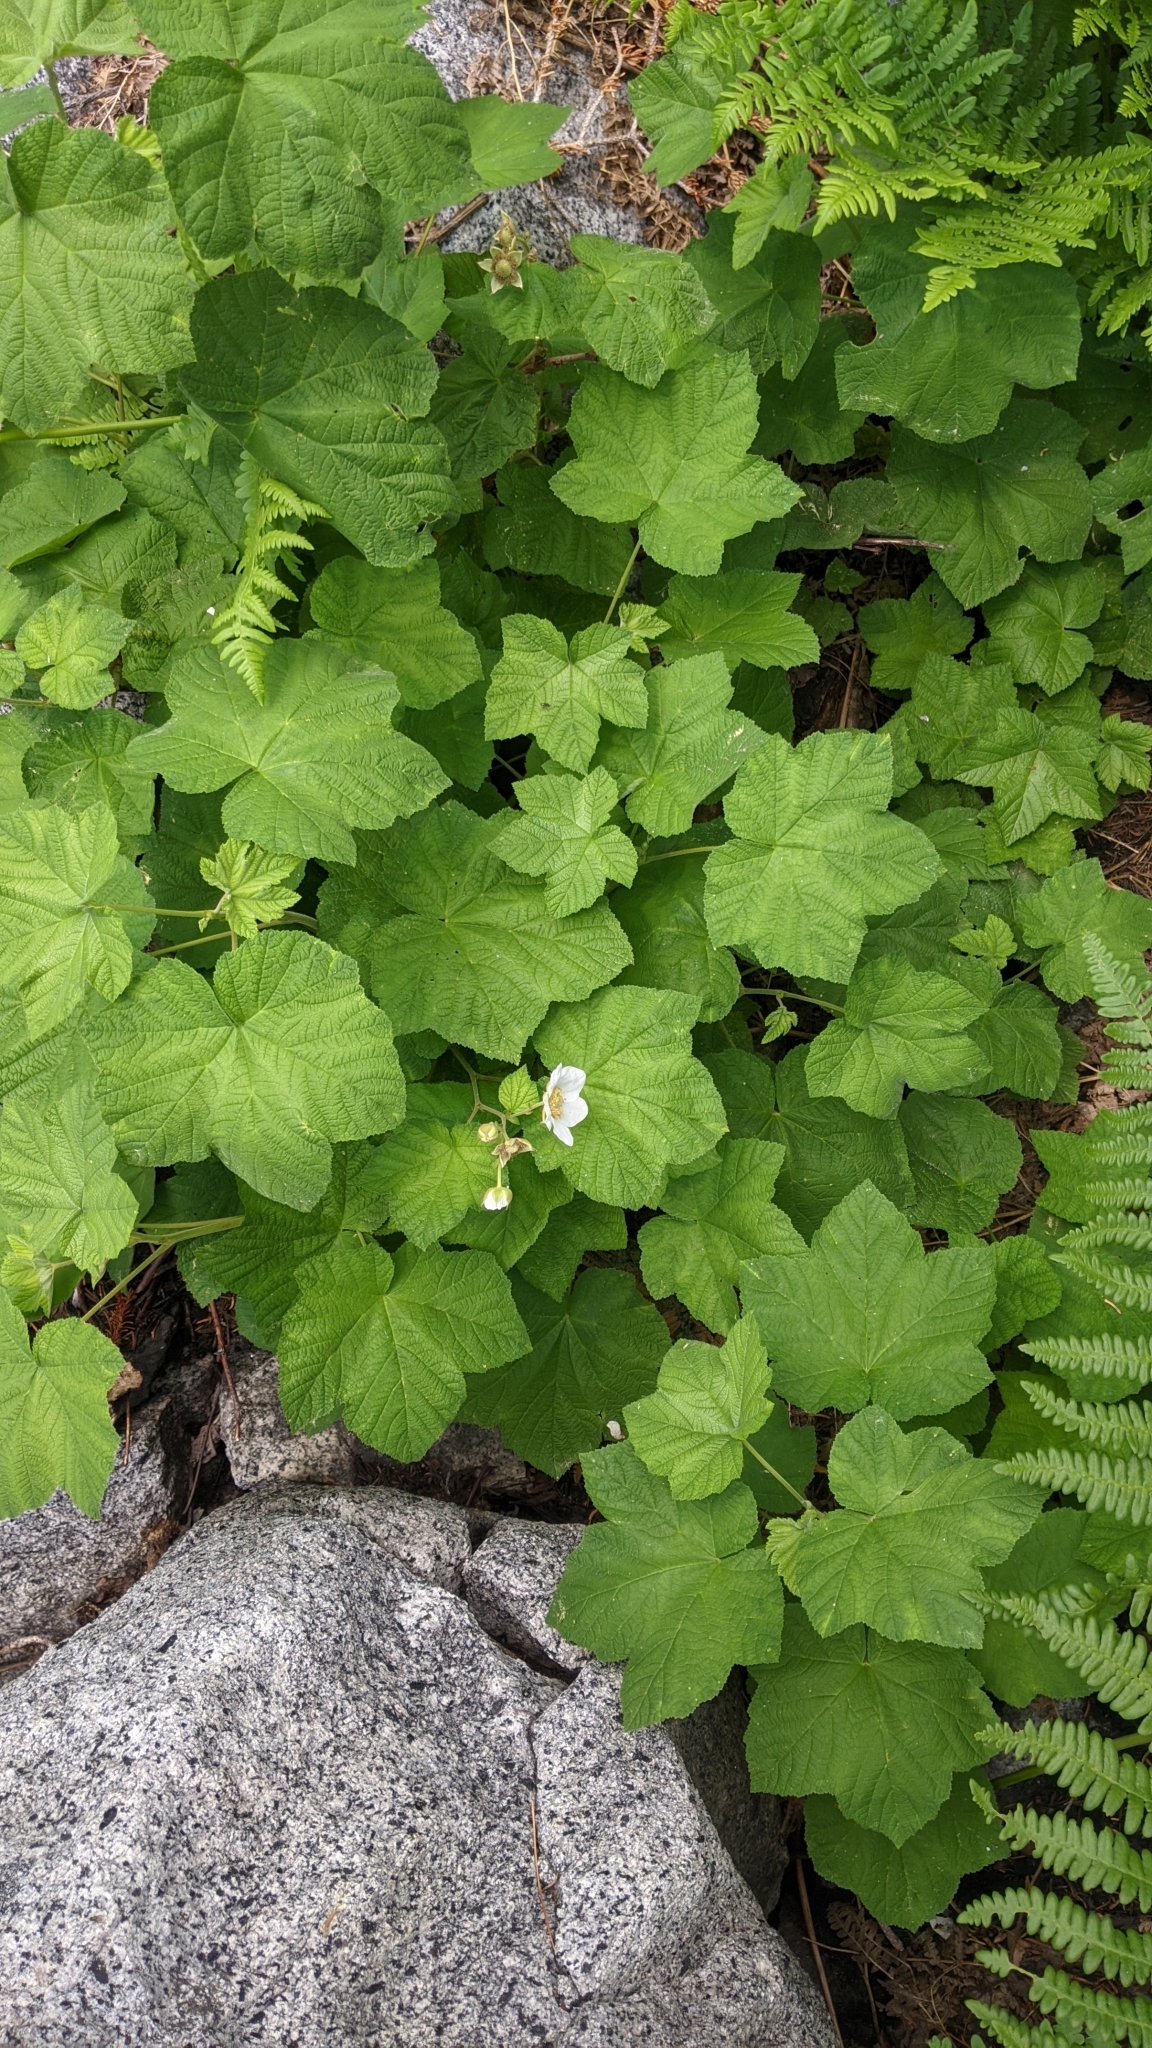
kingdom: Plantae
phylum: Tracheophyta
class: Magnoliopsida
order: Rosales
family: Rosaceae
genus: Rubus
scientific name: Rubus parviflorus
